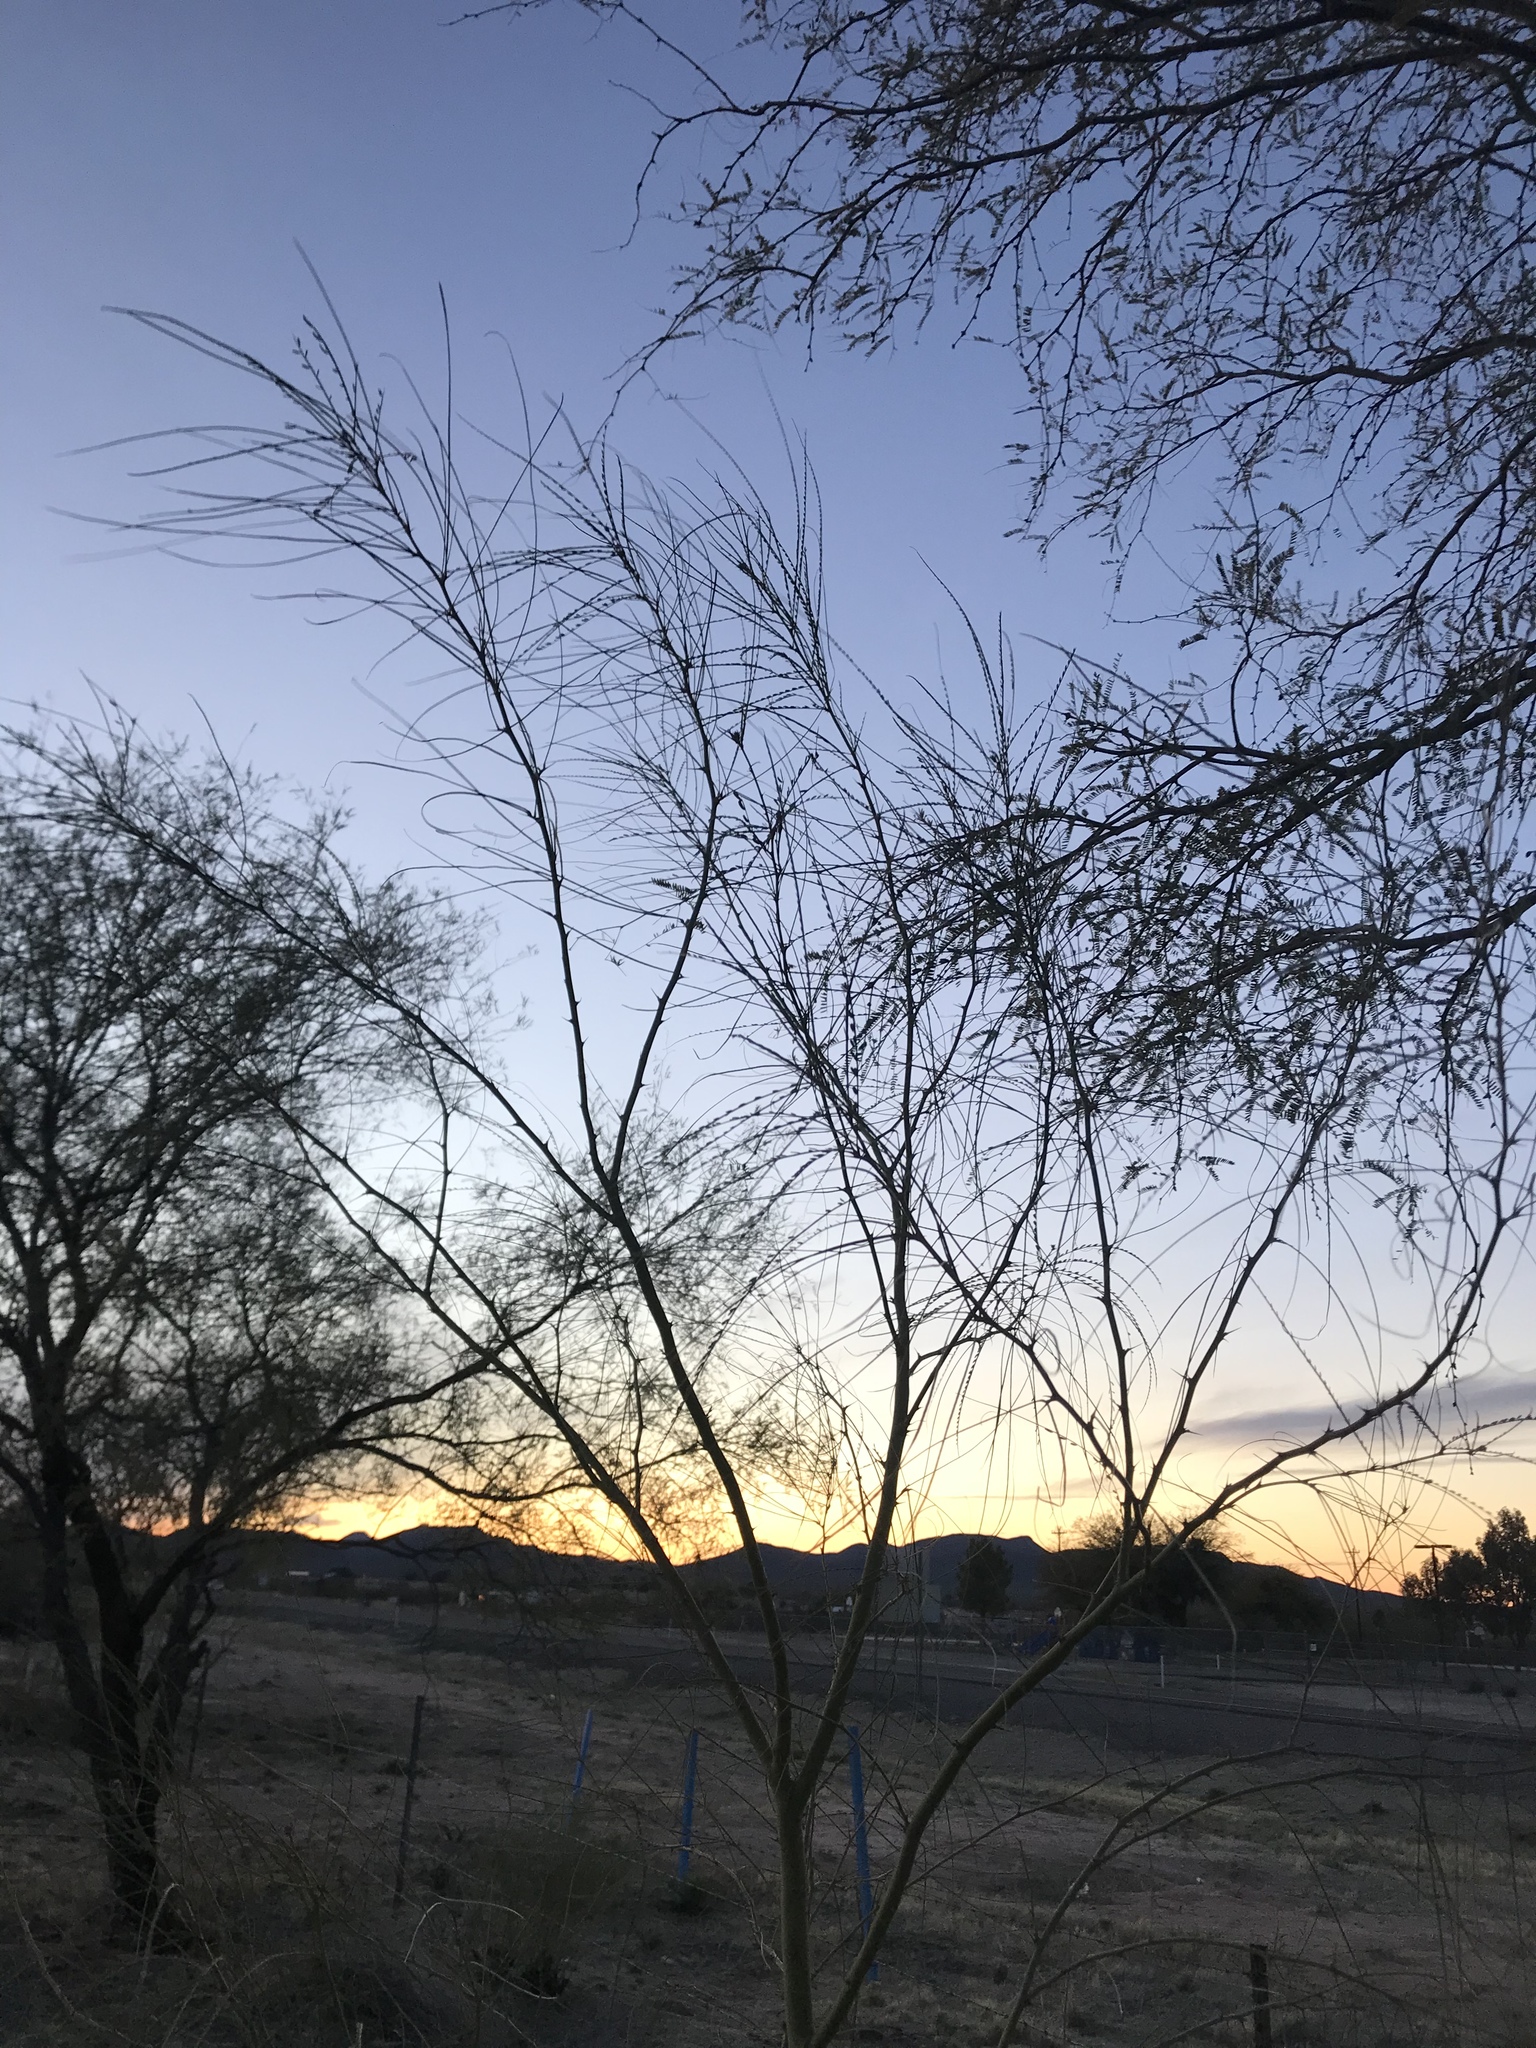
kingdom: Plantae
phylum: Tracheophyta
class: Magnoliopsida
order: Fabales
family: Fabaceae
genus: Parkinsonia
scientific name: Parkinsonia aculeata
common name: Jerusalem thorn
